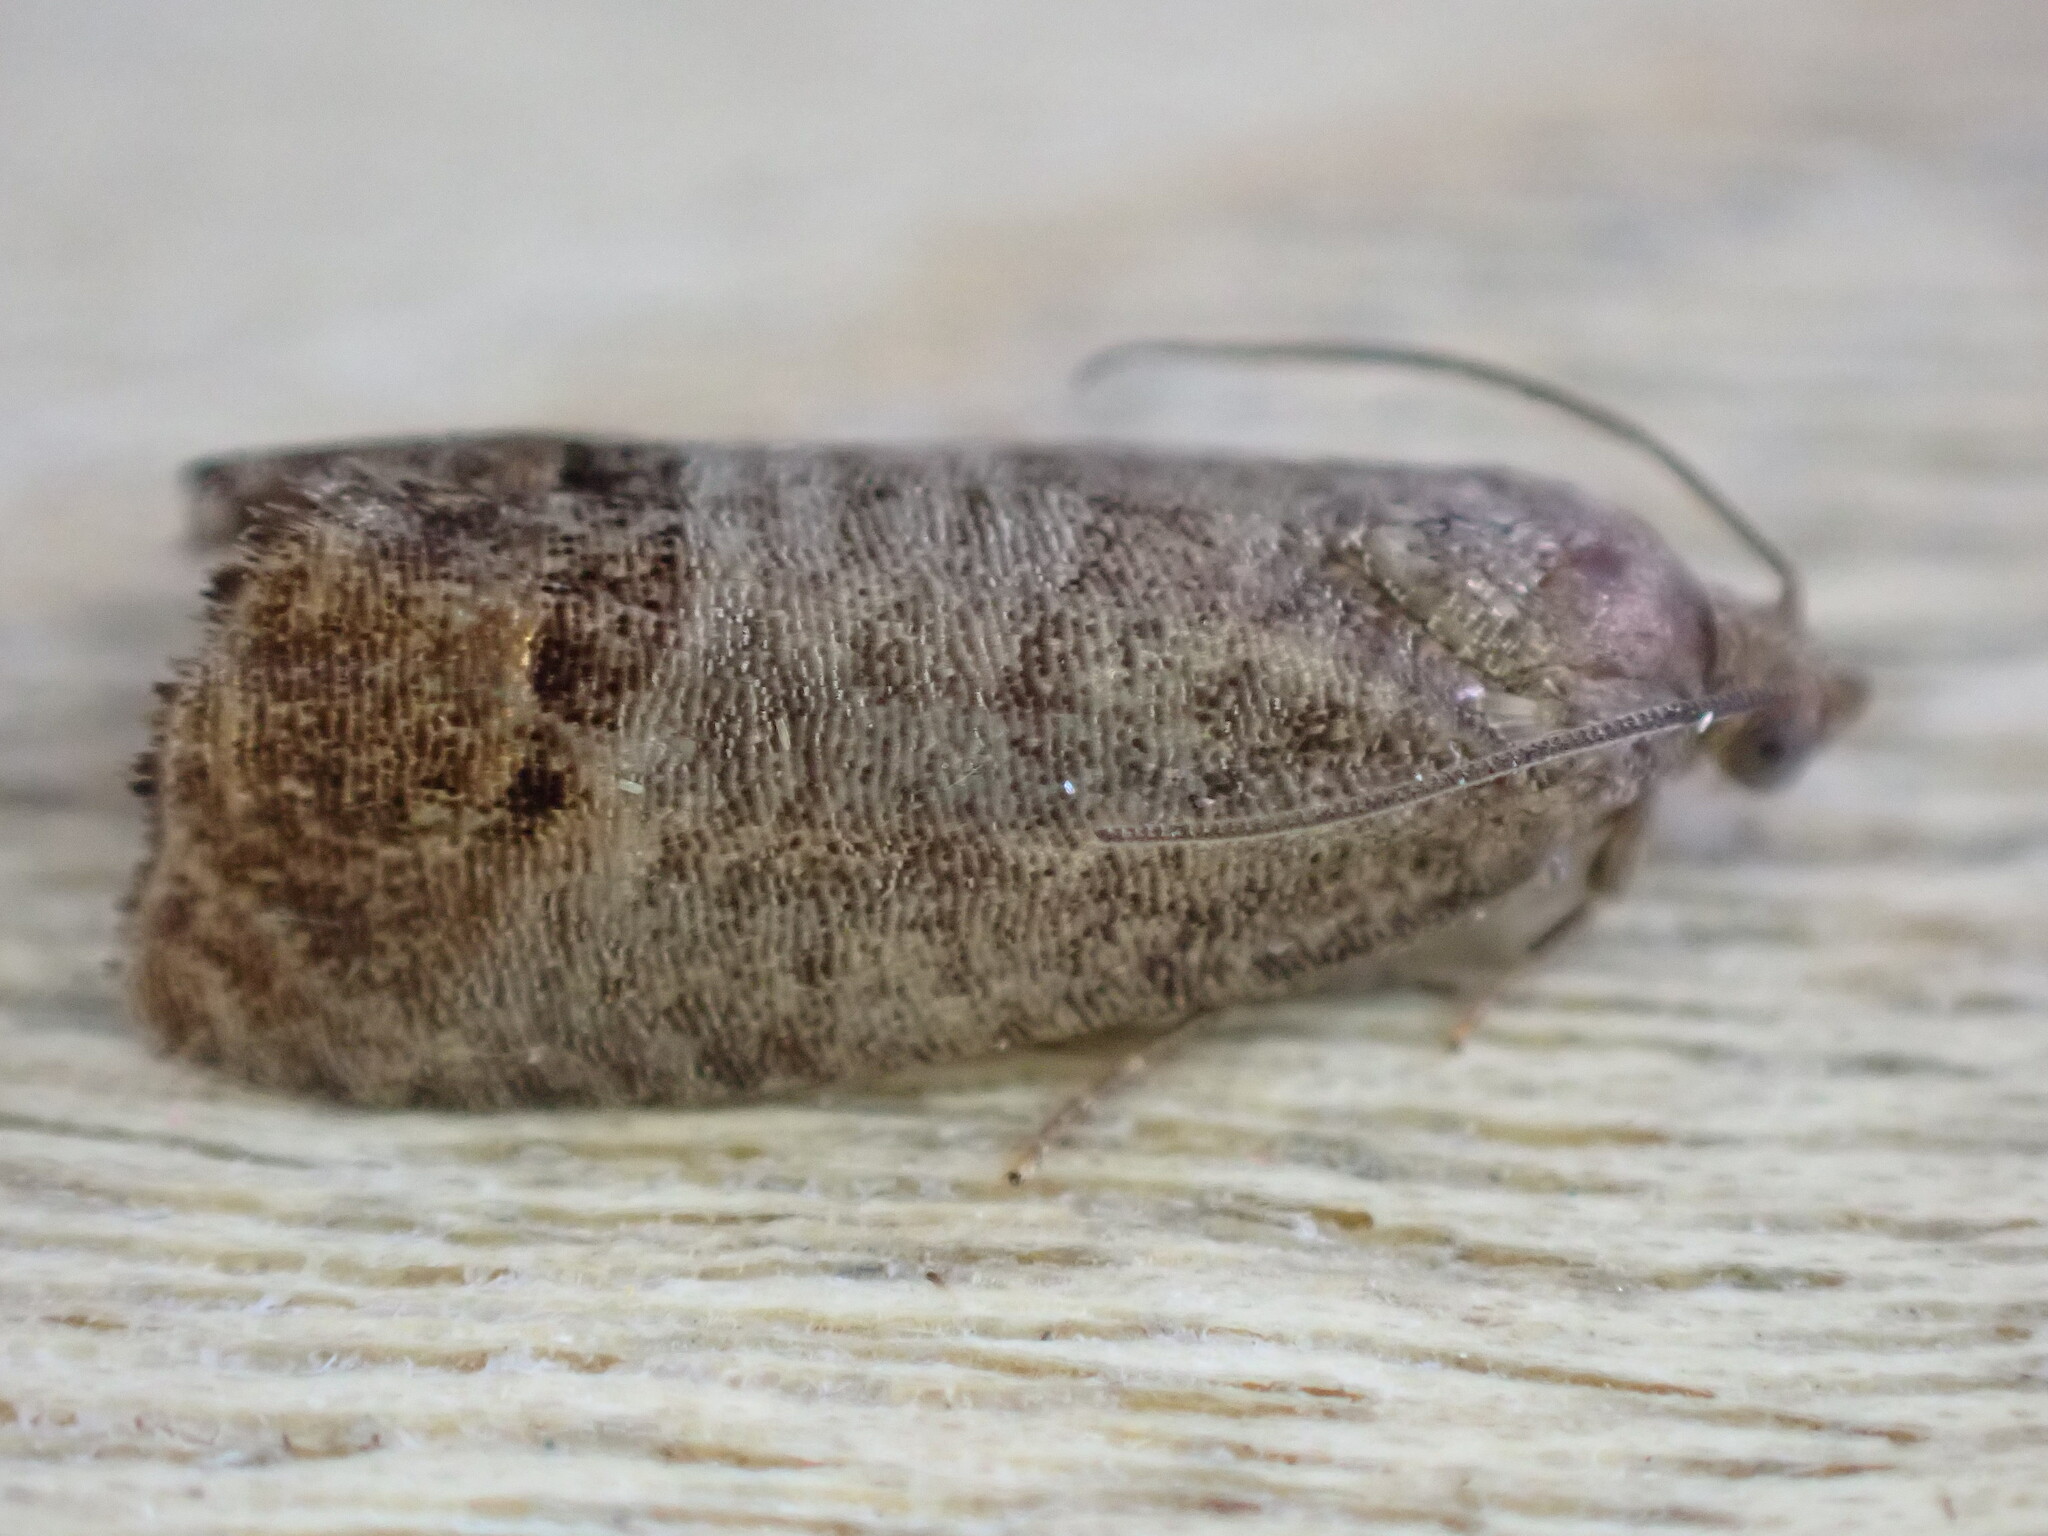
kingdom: Animalia
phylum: Arthropoda
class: Insecta
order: Lepidoptera
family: Tortricidae
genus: Cydia
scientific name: Cydia pomonella
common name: Codling moth
